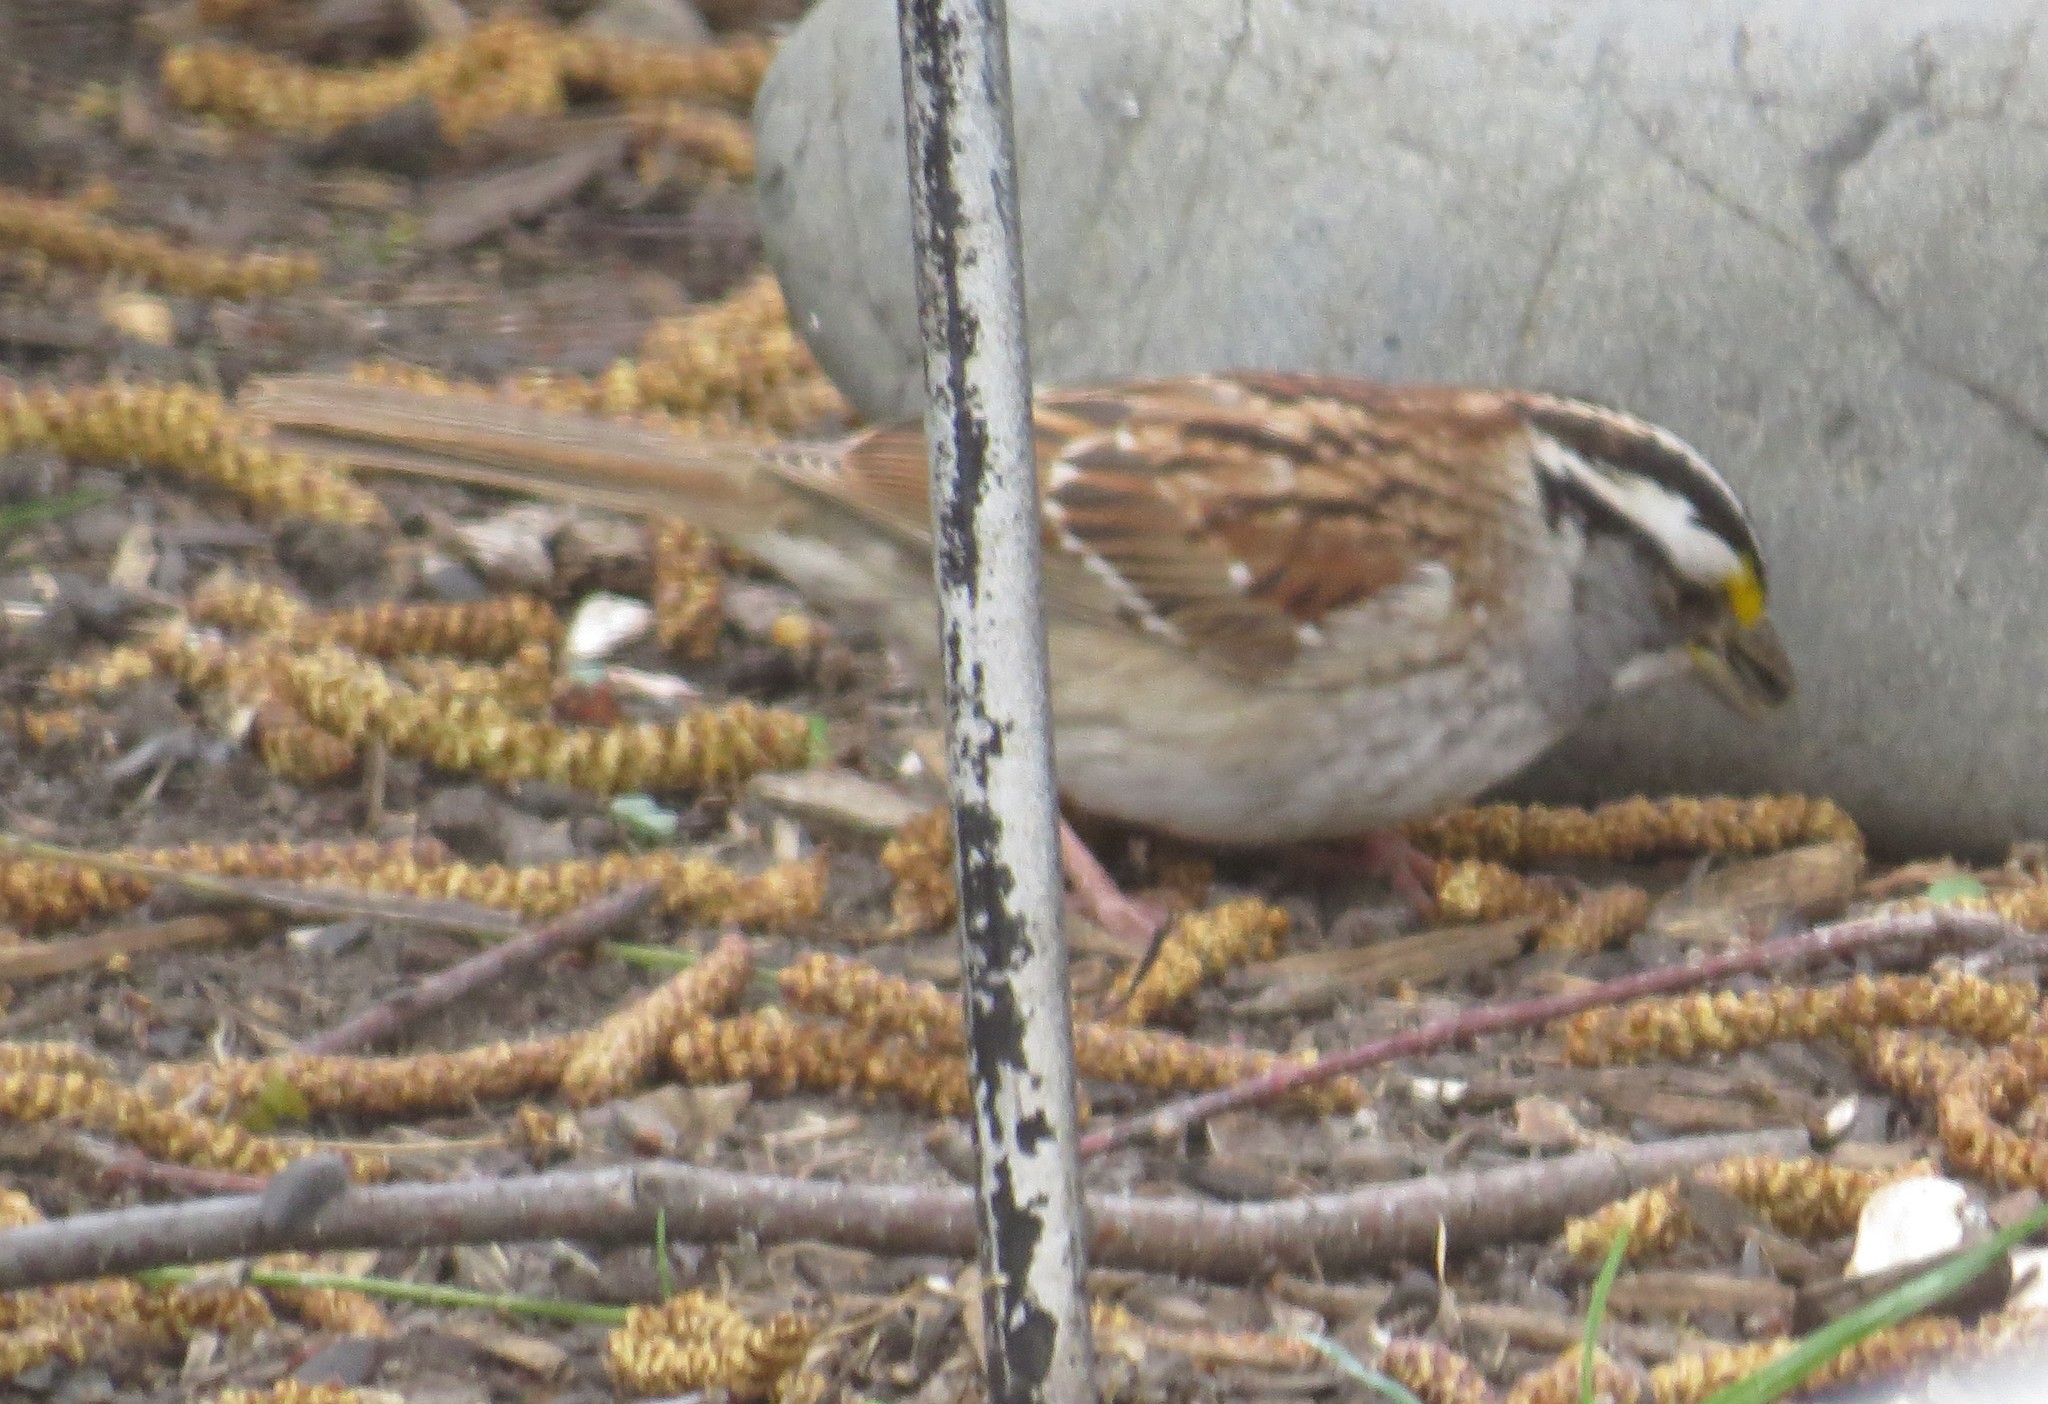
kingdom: Animalia
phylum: Chordata
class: Aves
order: Passeriformes
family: Passerellidae
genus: Zonotrichia
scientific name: Zonotrichia albicollis
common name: White-throated sparrow
